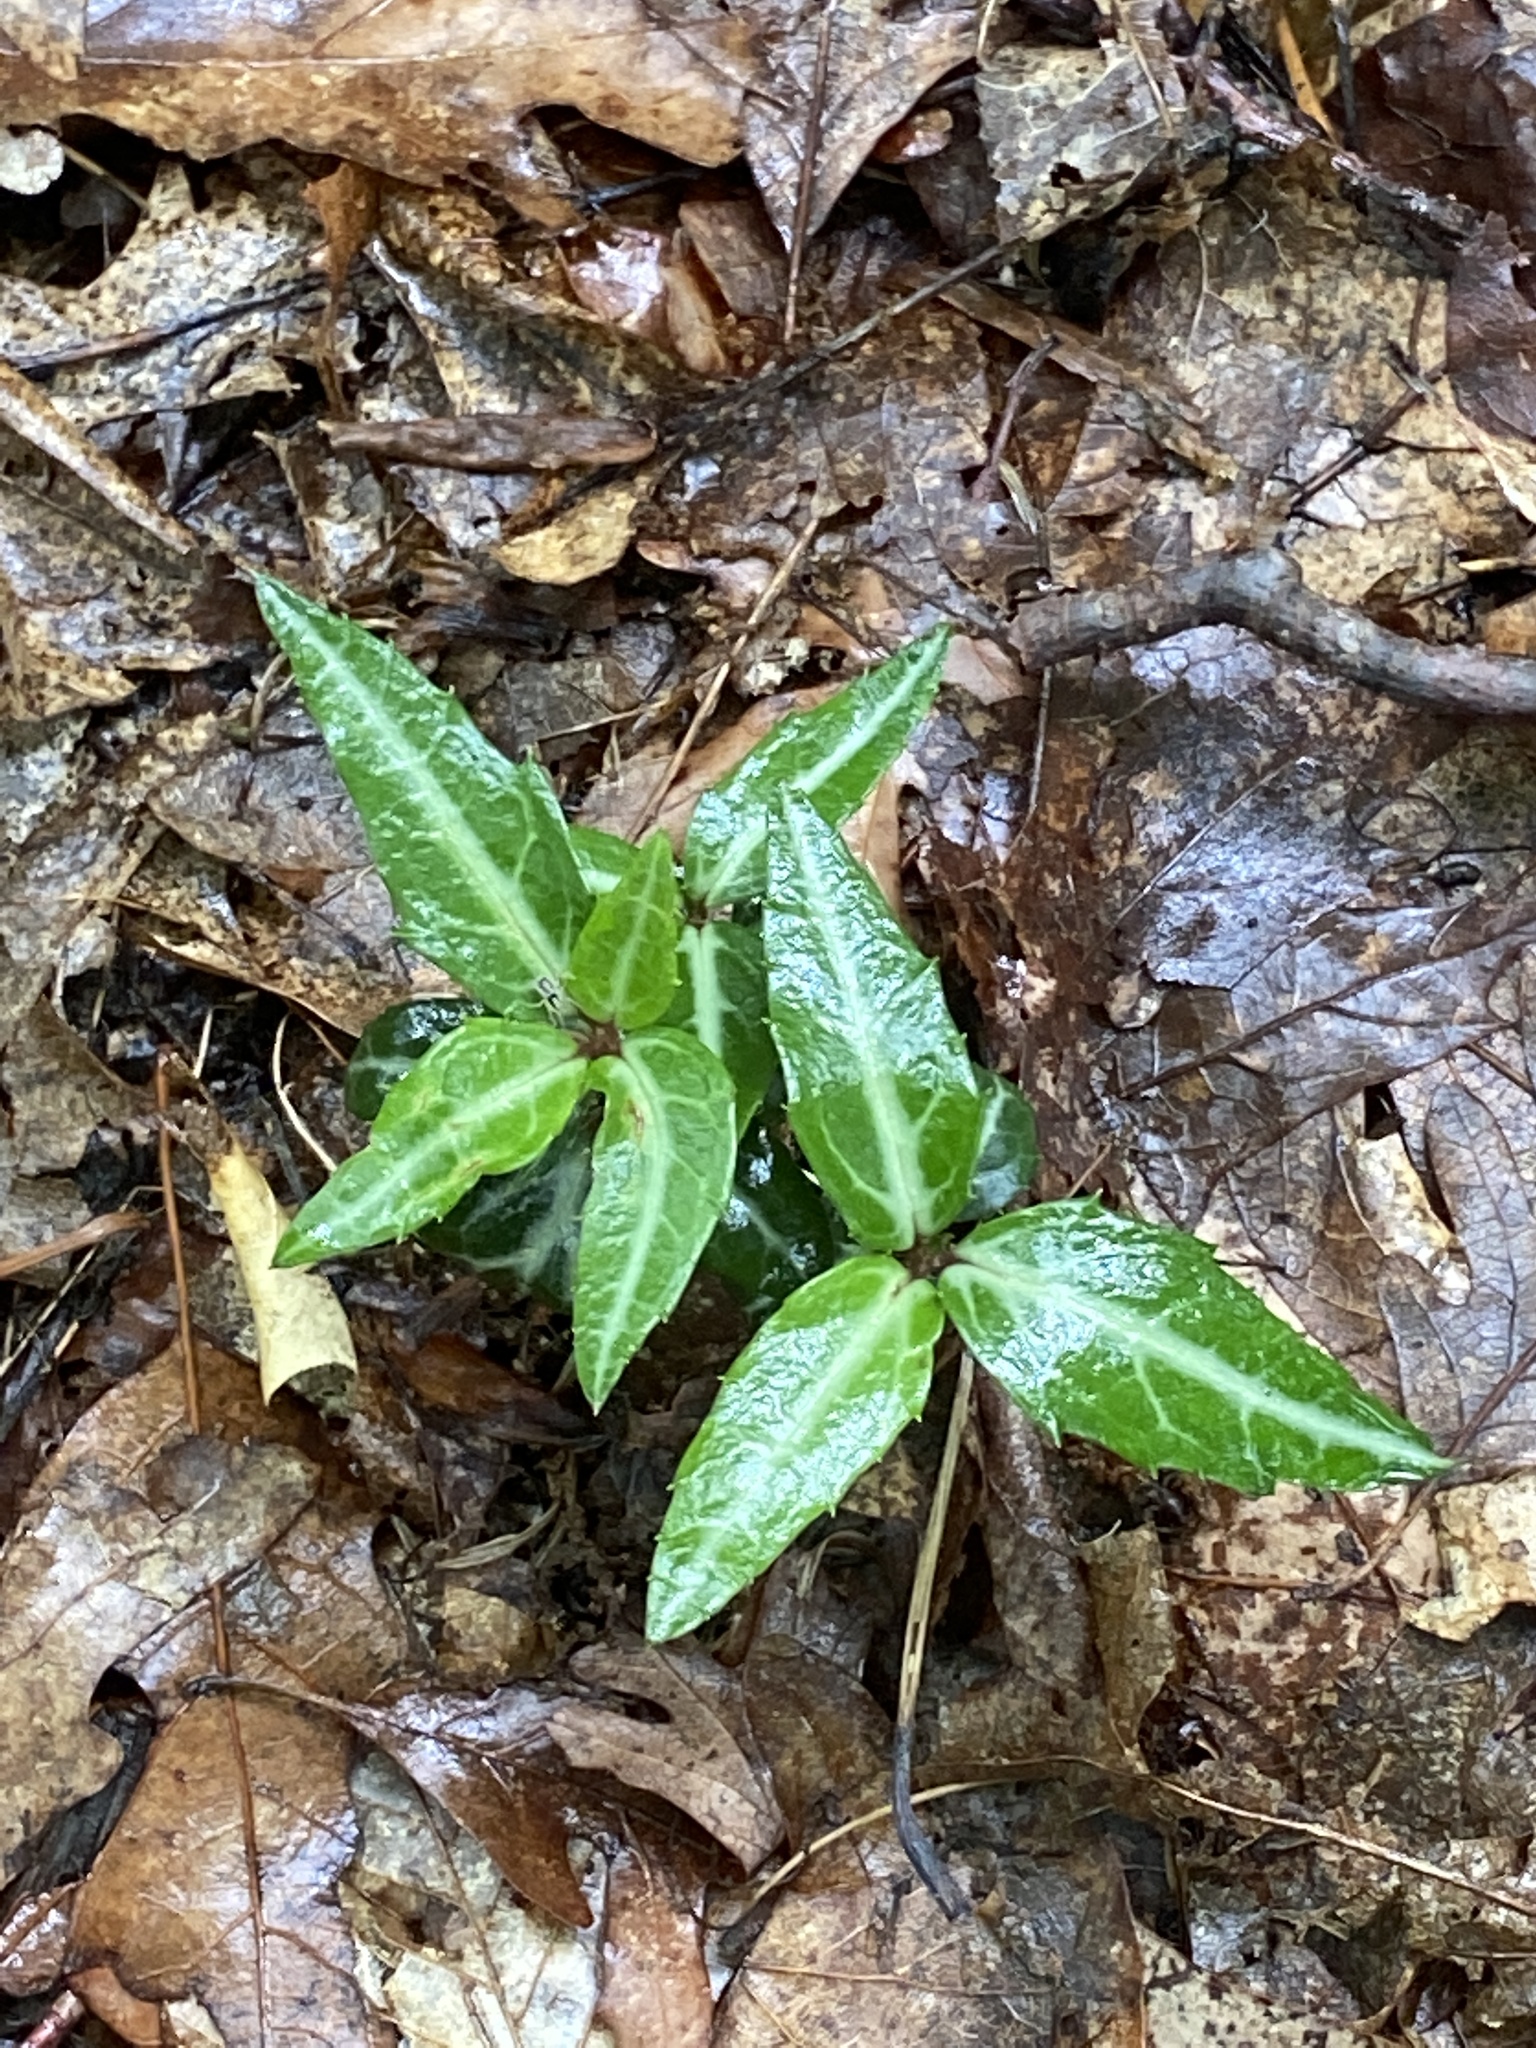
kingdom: Plantae
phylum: Tracheophyta
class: Magnoliopsida
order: Ericales
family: Ericaceae
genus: Chimaphila
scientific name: Chimaphila maculata
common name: Spotted pipsissewa
